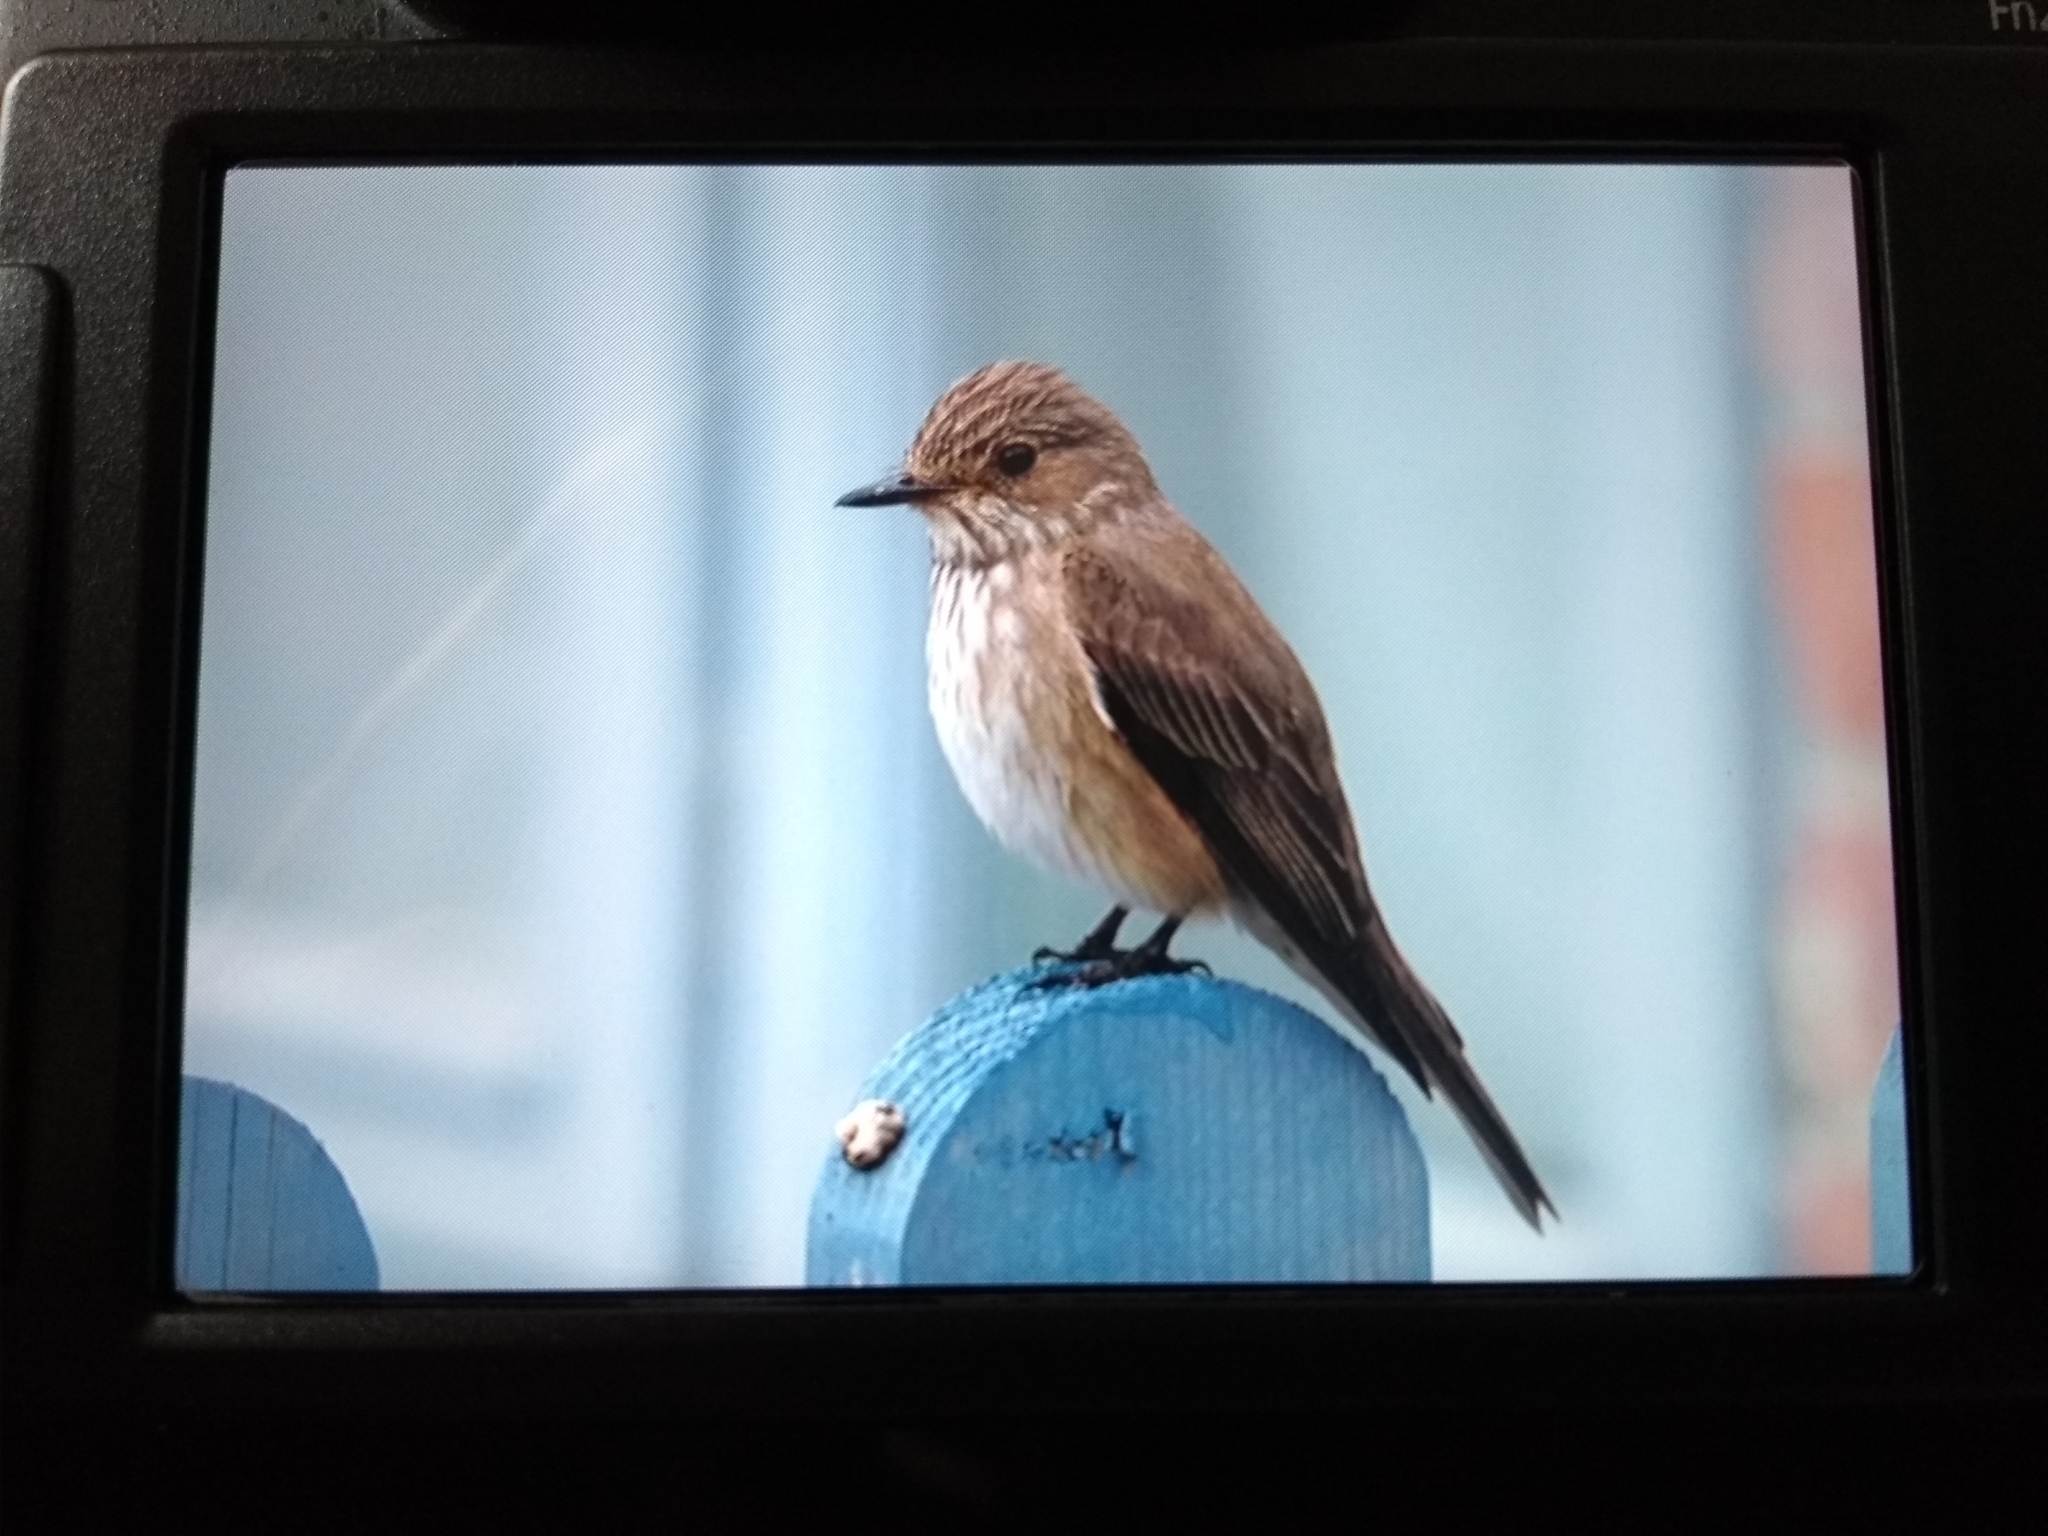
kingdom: Animalia
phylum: Chordata
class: Aves
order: Passeriformes
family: Muscicapidae
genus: Muscicapa
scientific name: Muscicapa striata
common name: Spotted flycatcher
